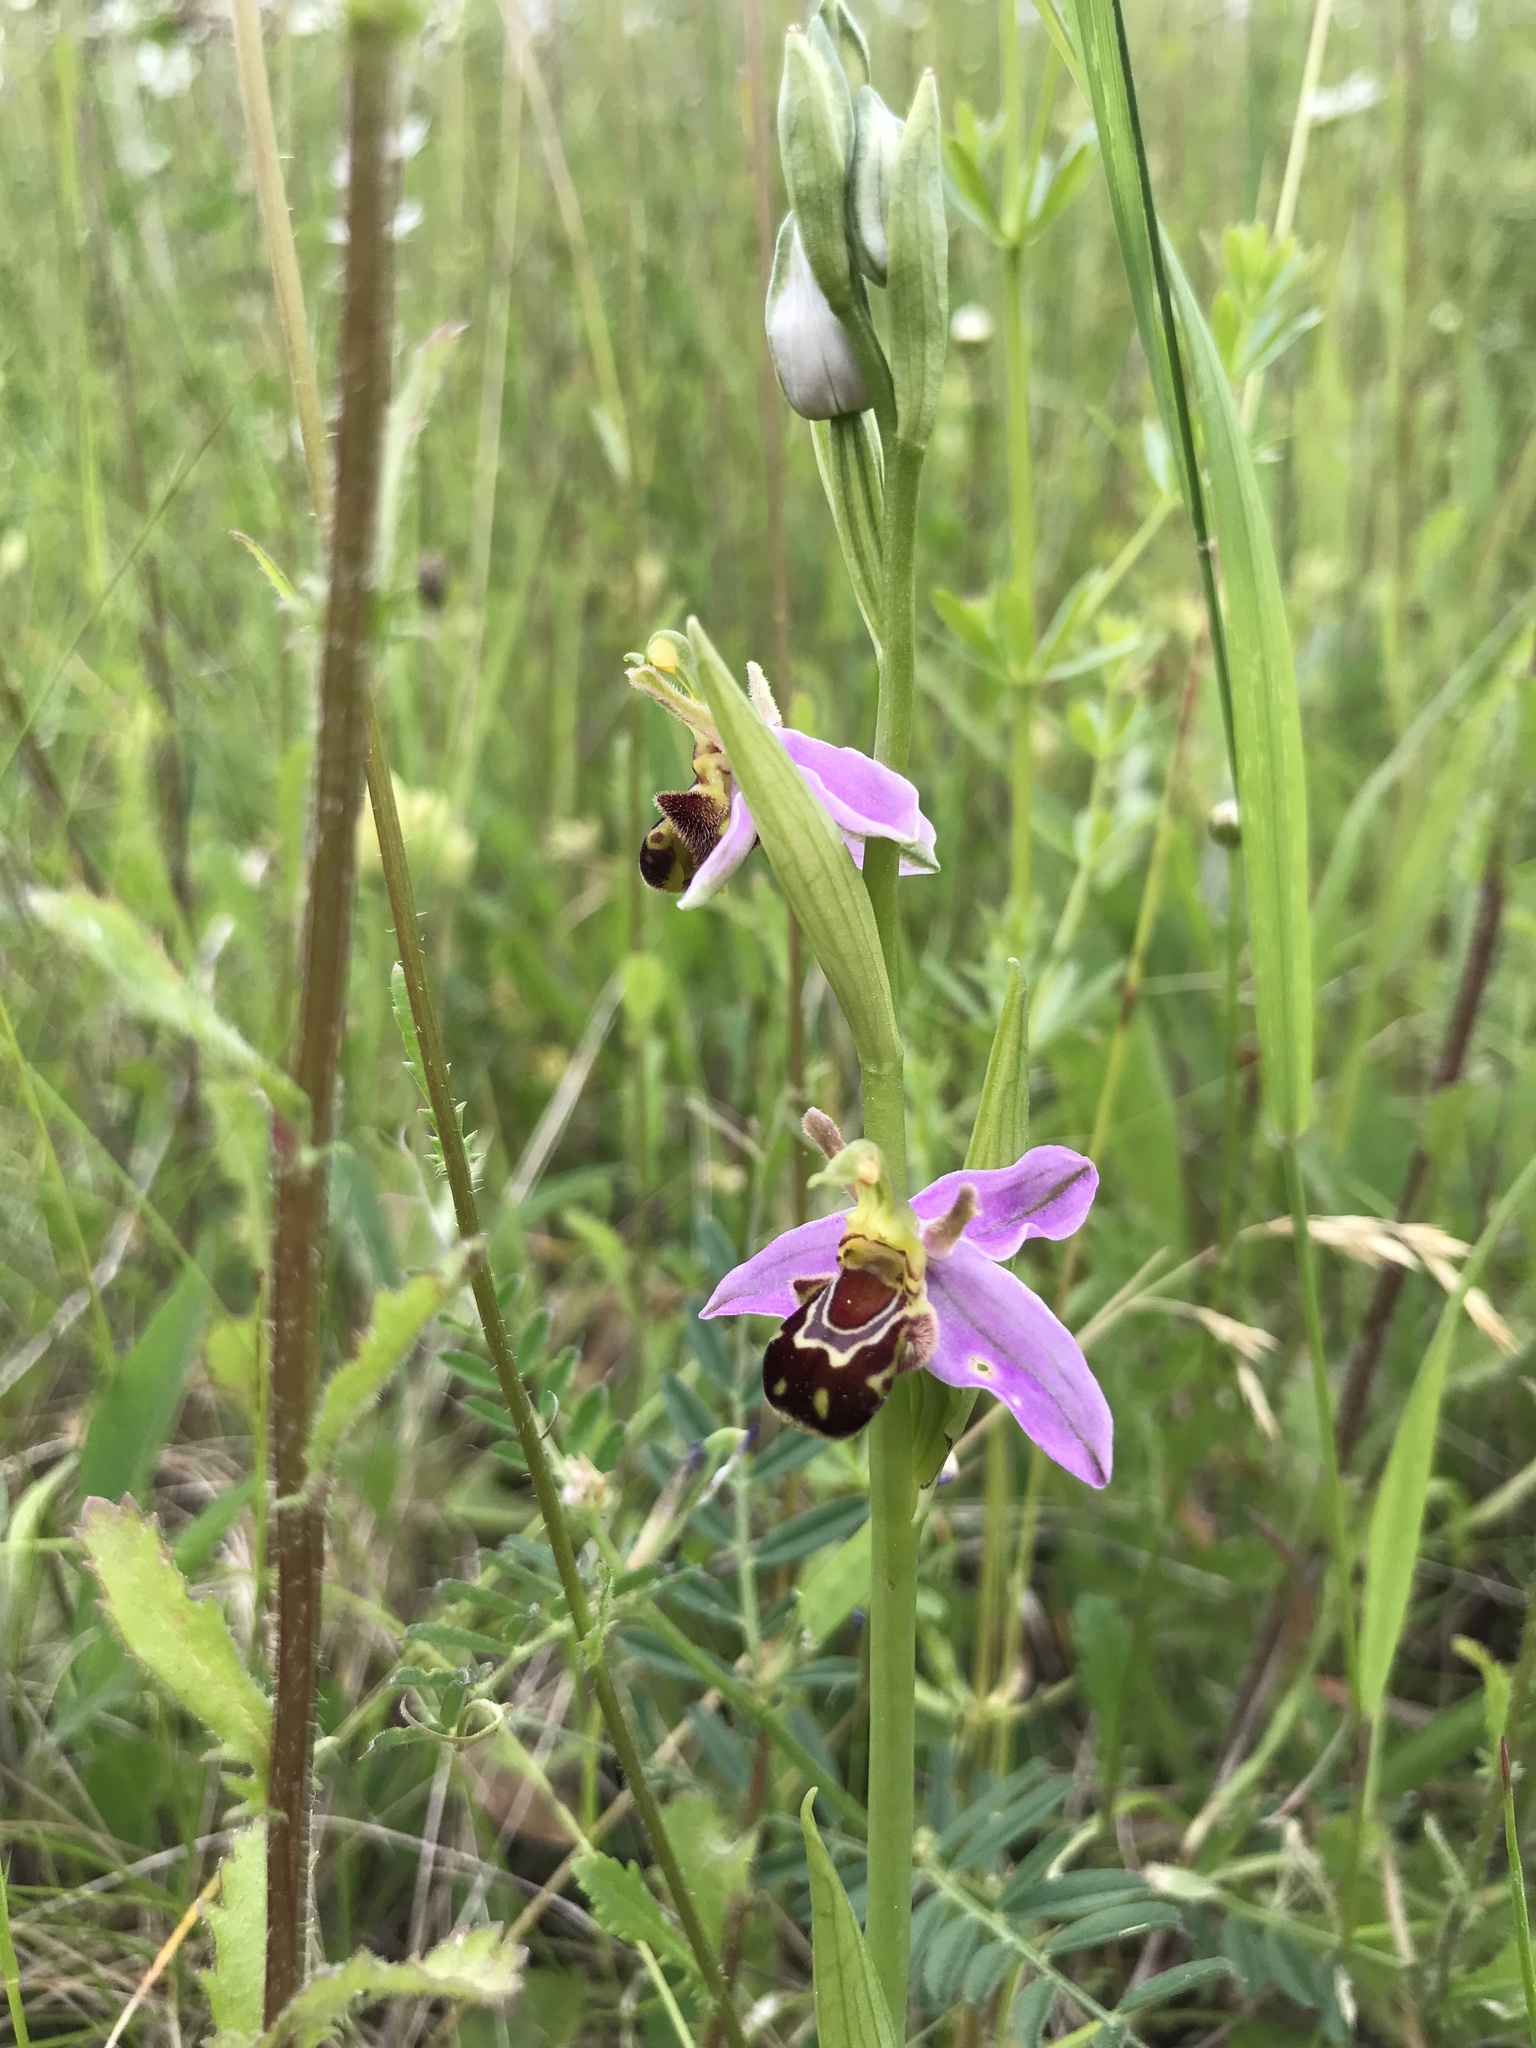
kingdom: Plantae
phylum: Tracheophyta
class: Liliopsida
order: Asparagales
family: Orchidaceae
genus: Ophrys
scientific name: Ophrys apifera
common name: Bee orchid
